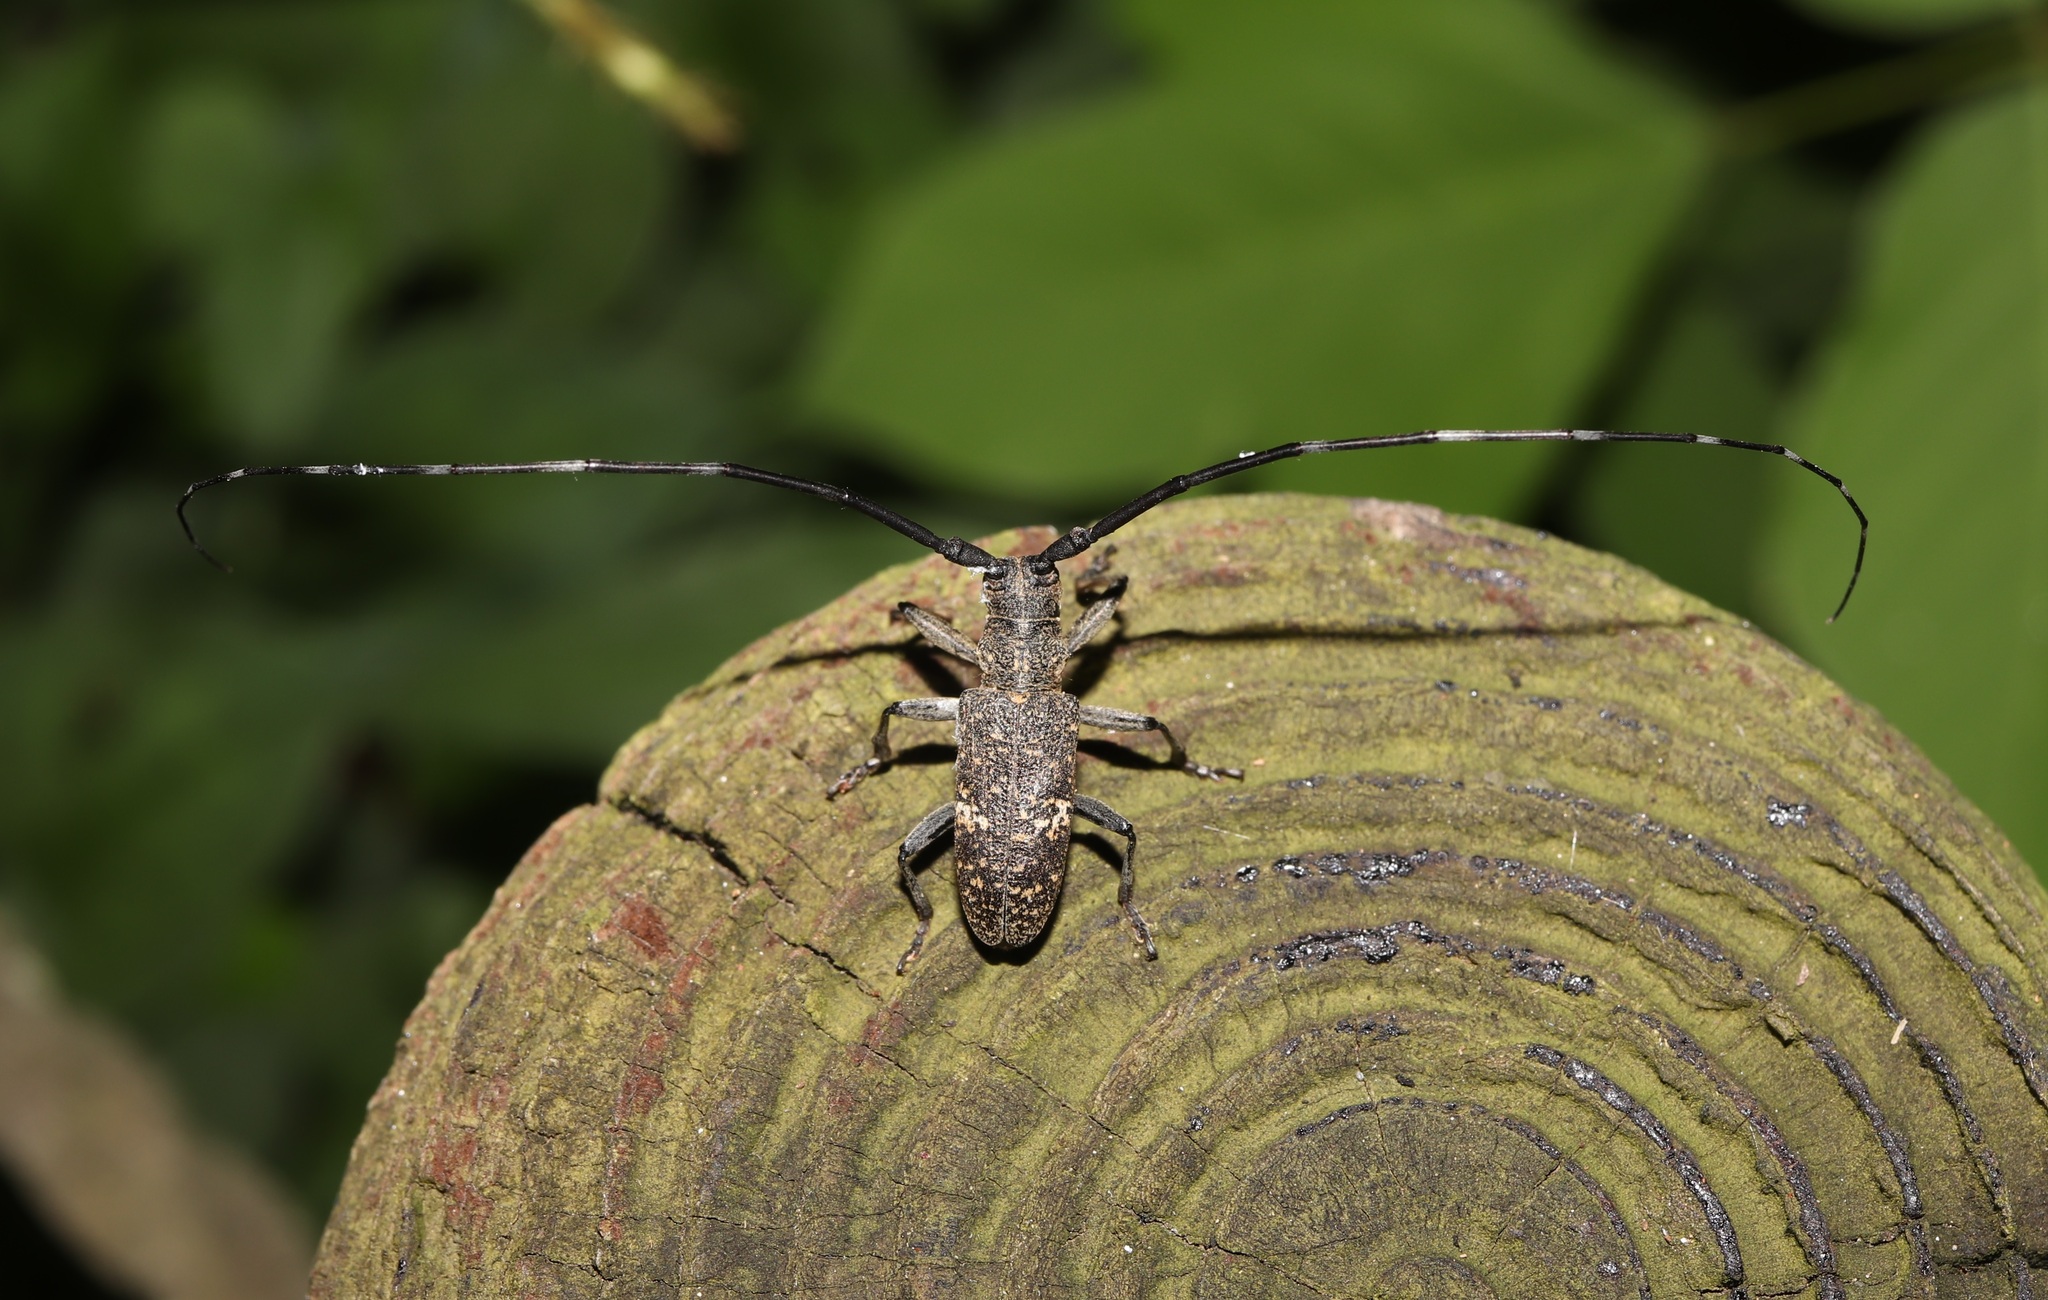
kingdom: Animalia
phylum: Arthropoda
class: Insecta
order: Coleoptera
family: Cerambycidae
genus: Monochamus
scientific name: Monochamus subfasciatus
